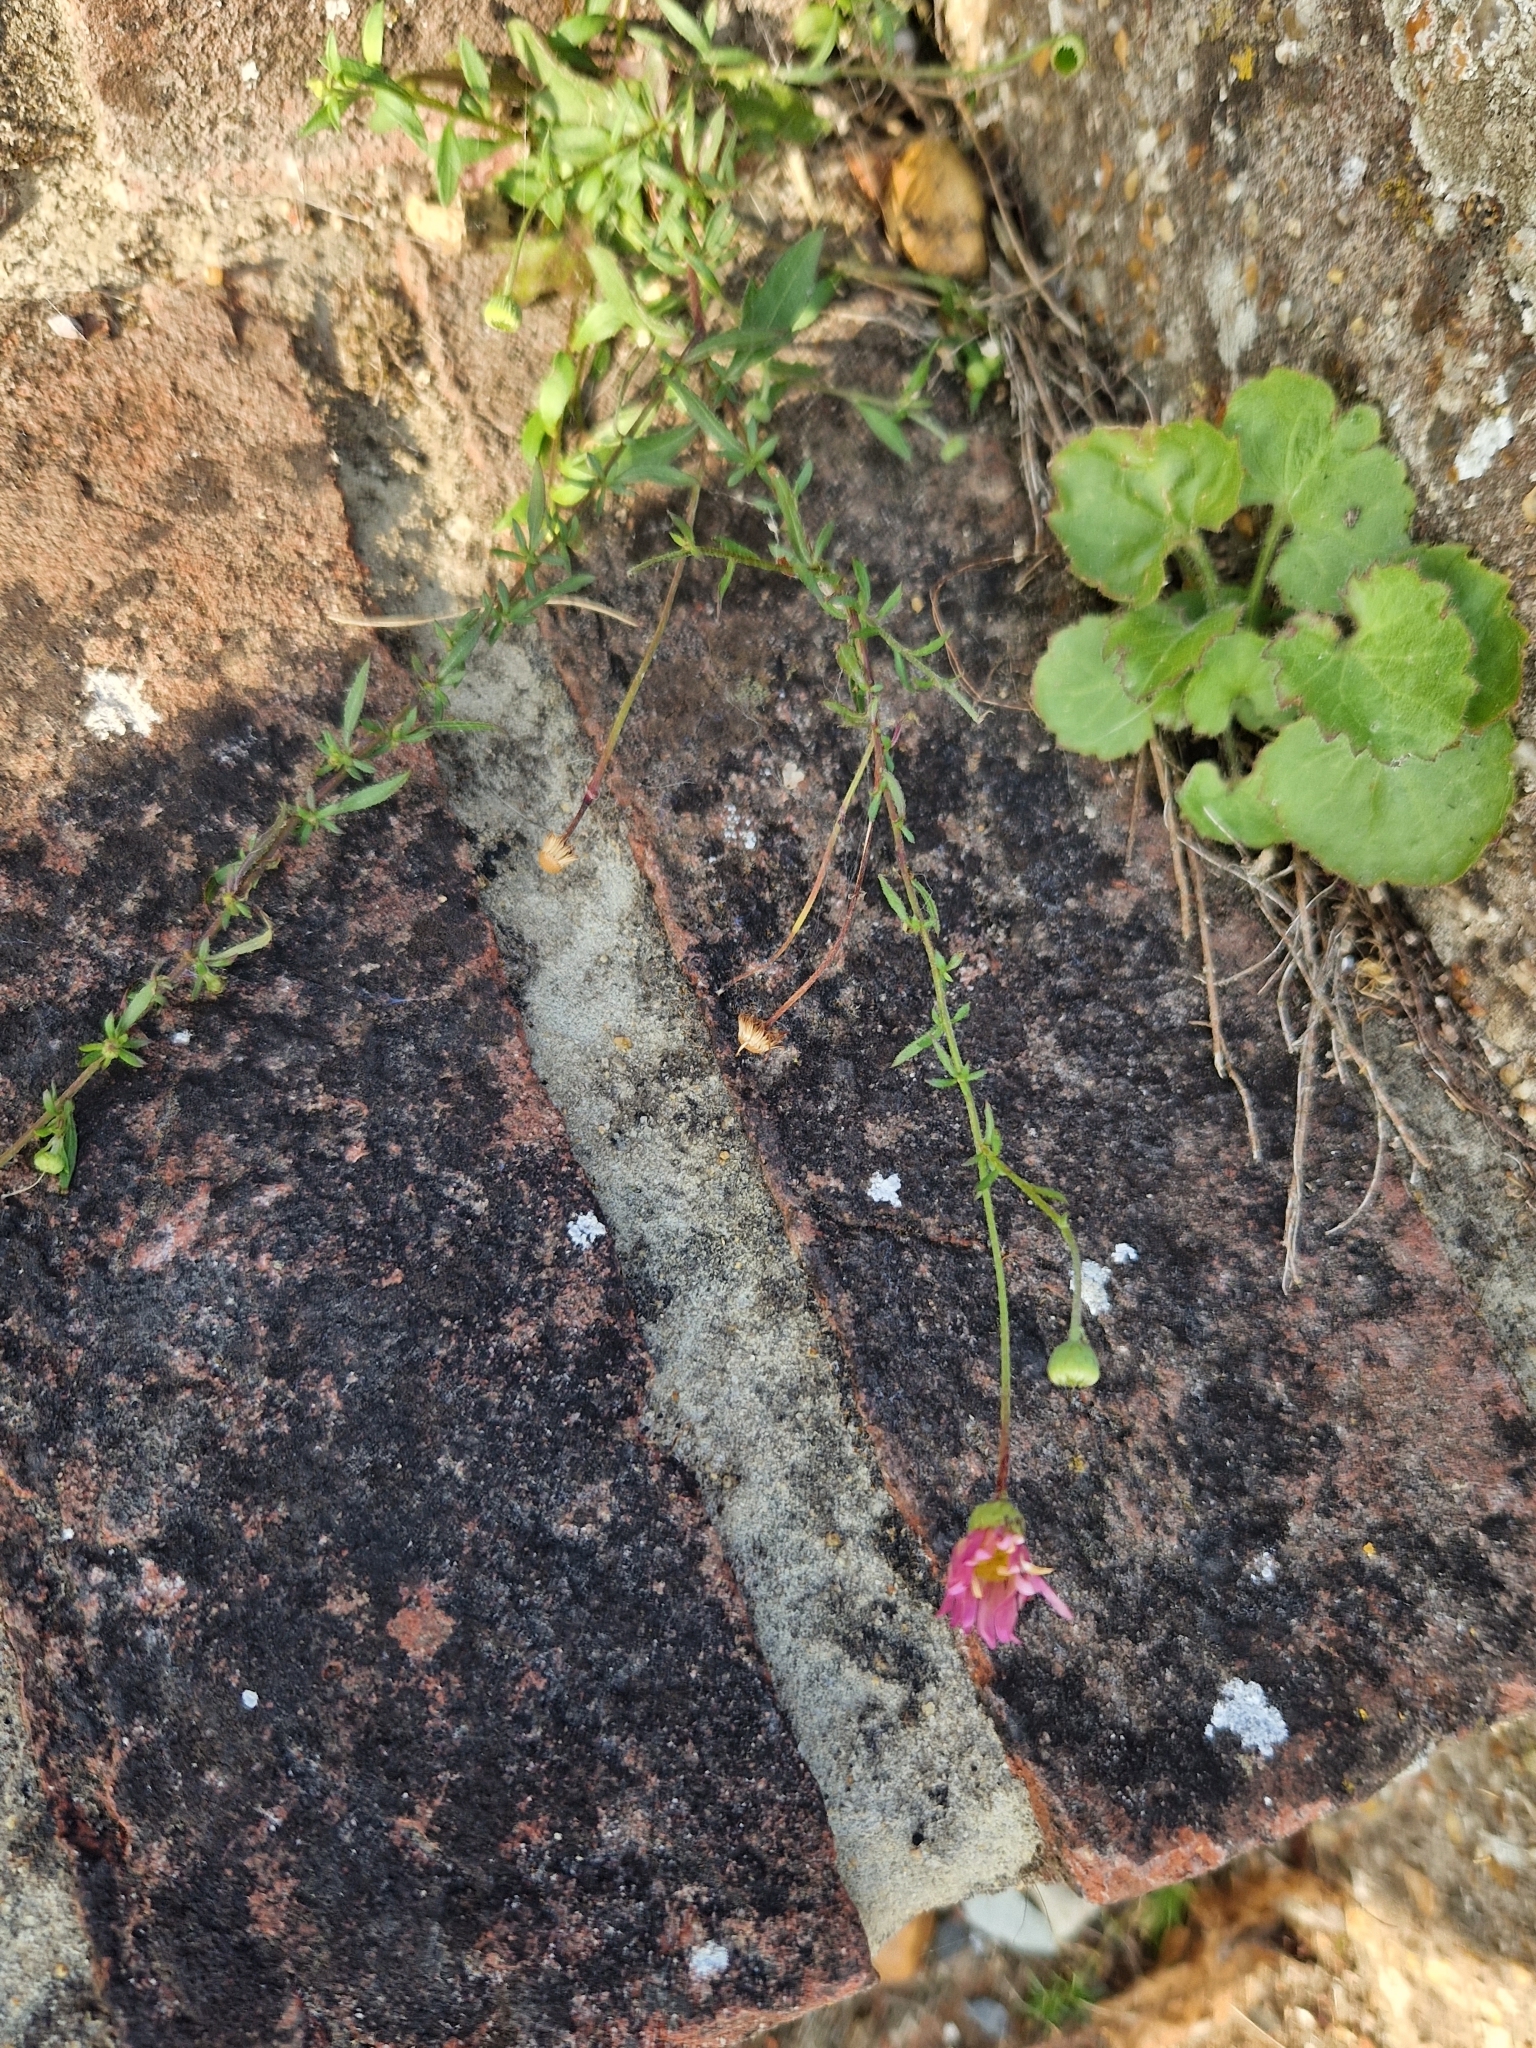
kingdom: Plantae
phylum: Tracheophyta
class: Magnoliopsida
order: Asterales
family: Asteraceae
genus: Erigeron
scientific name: Erigeron karvinskianus
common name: Mexican fleabane
